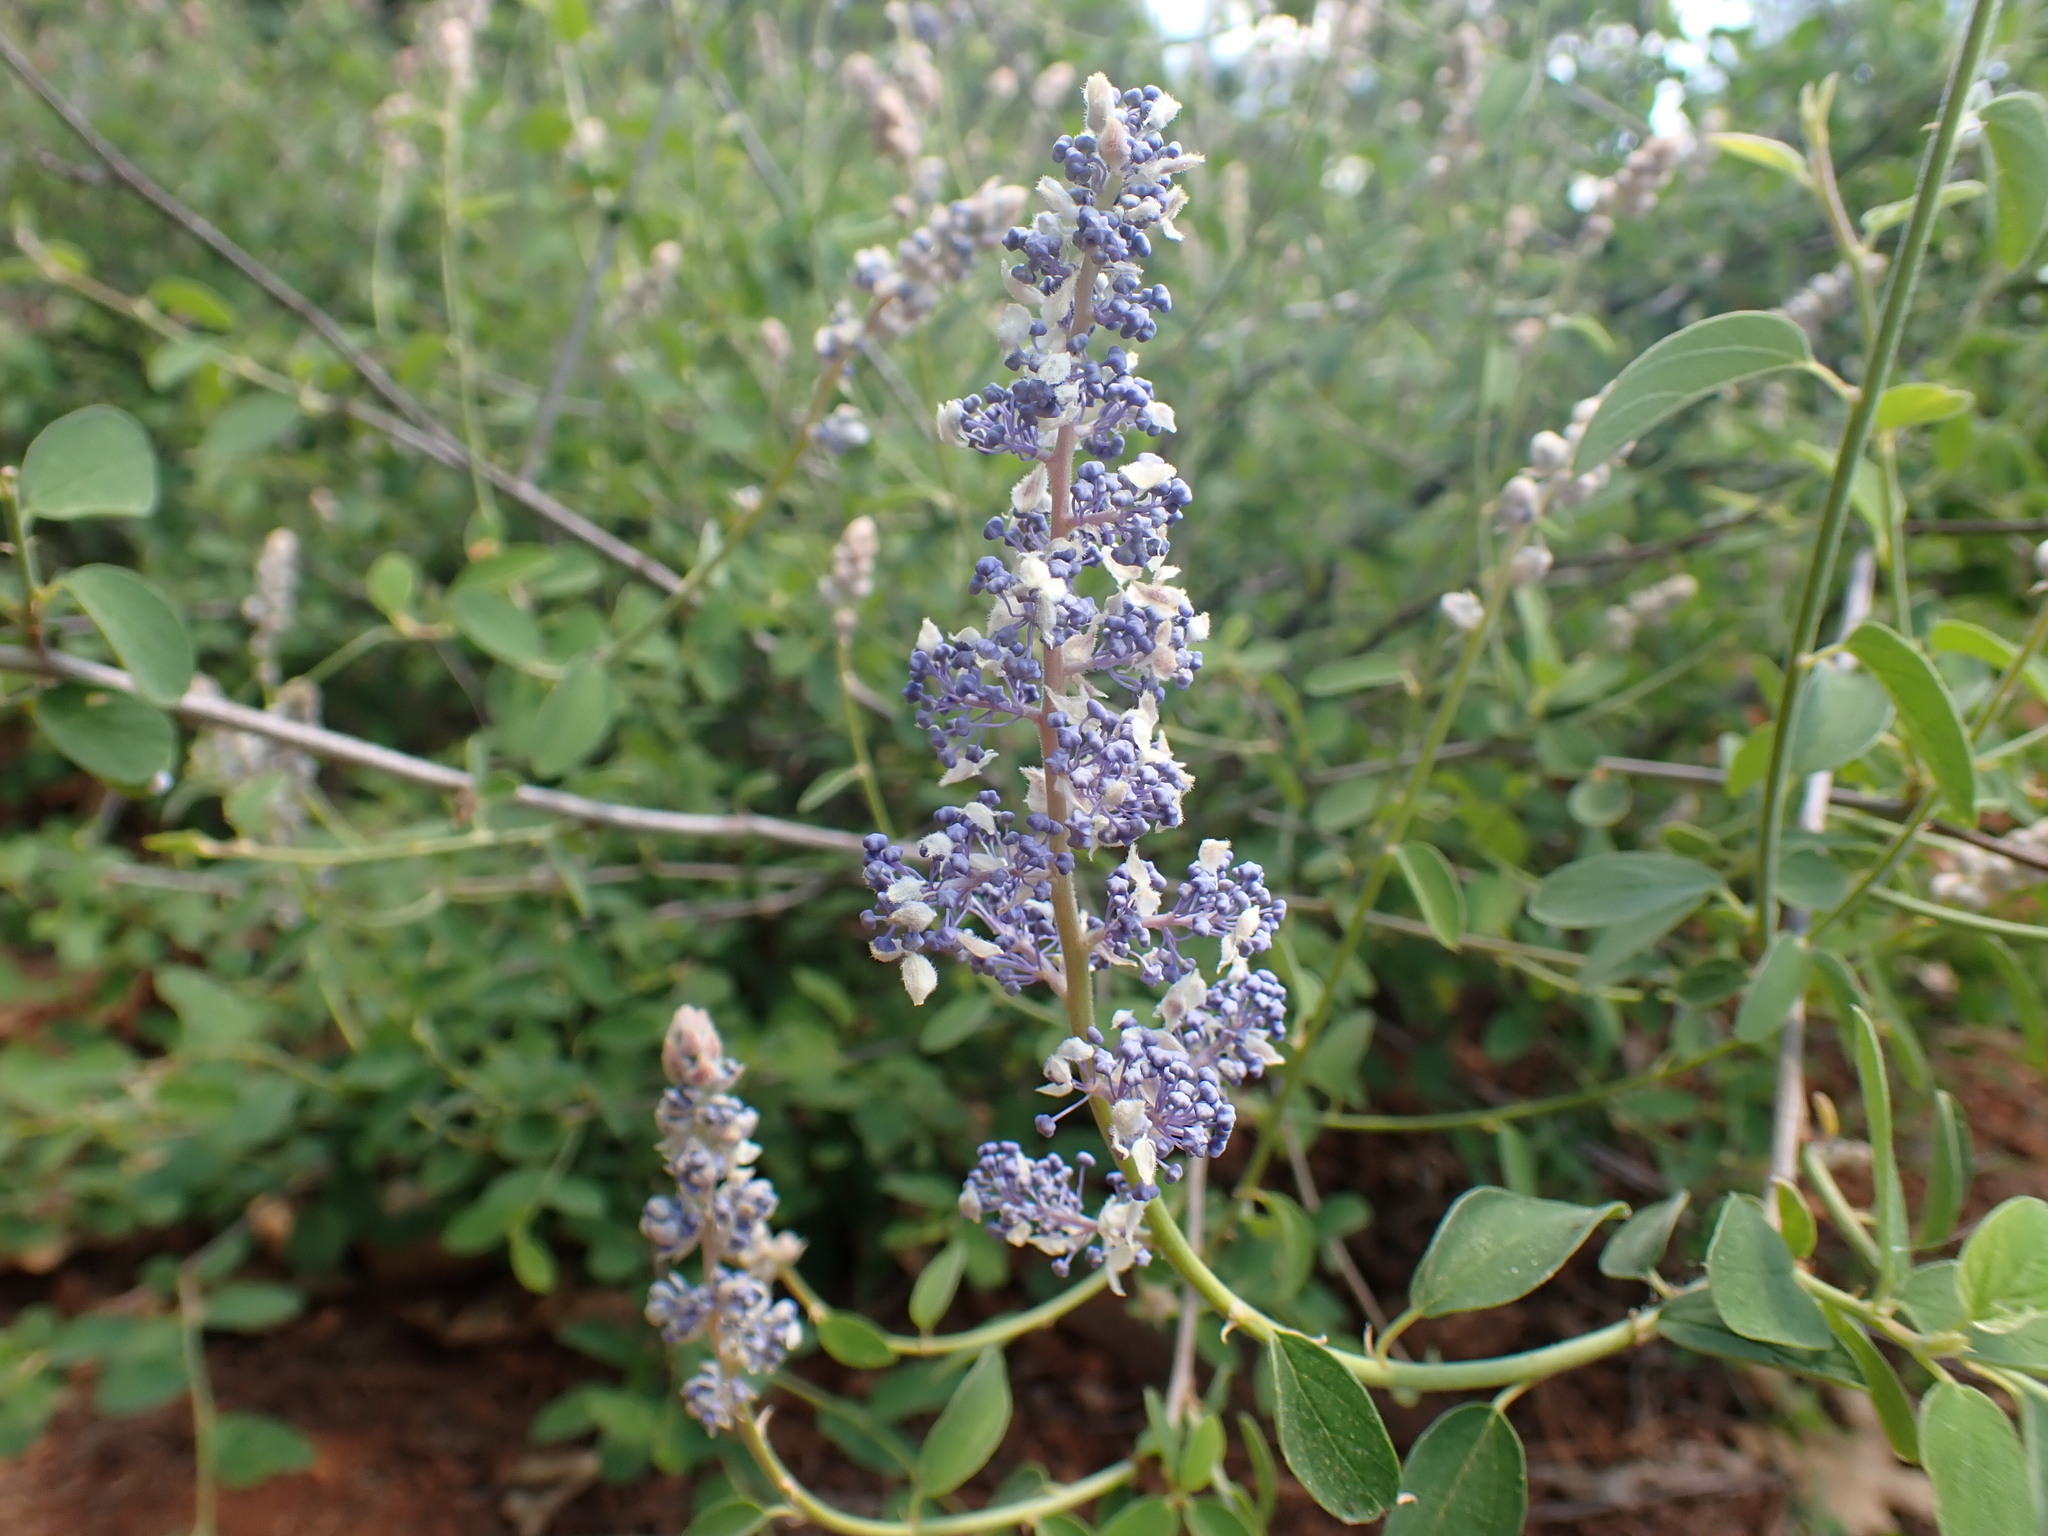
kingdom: Plantae
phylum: Tracheophyta
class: Magnoliopsida
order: Rosales
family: Rhamnaceae
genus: Ceanothus
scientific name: Ceanothus integerrimus
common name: Deerbrush ceanothus
